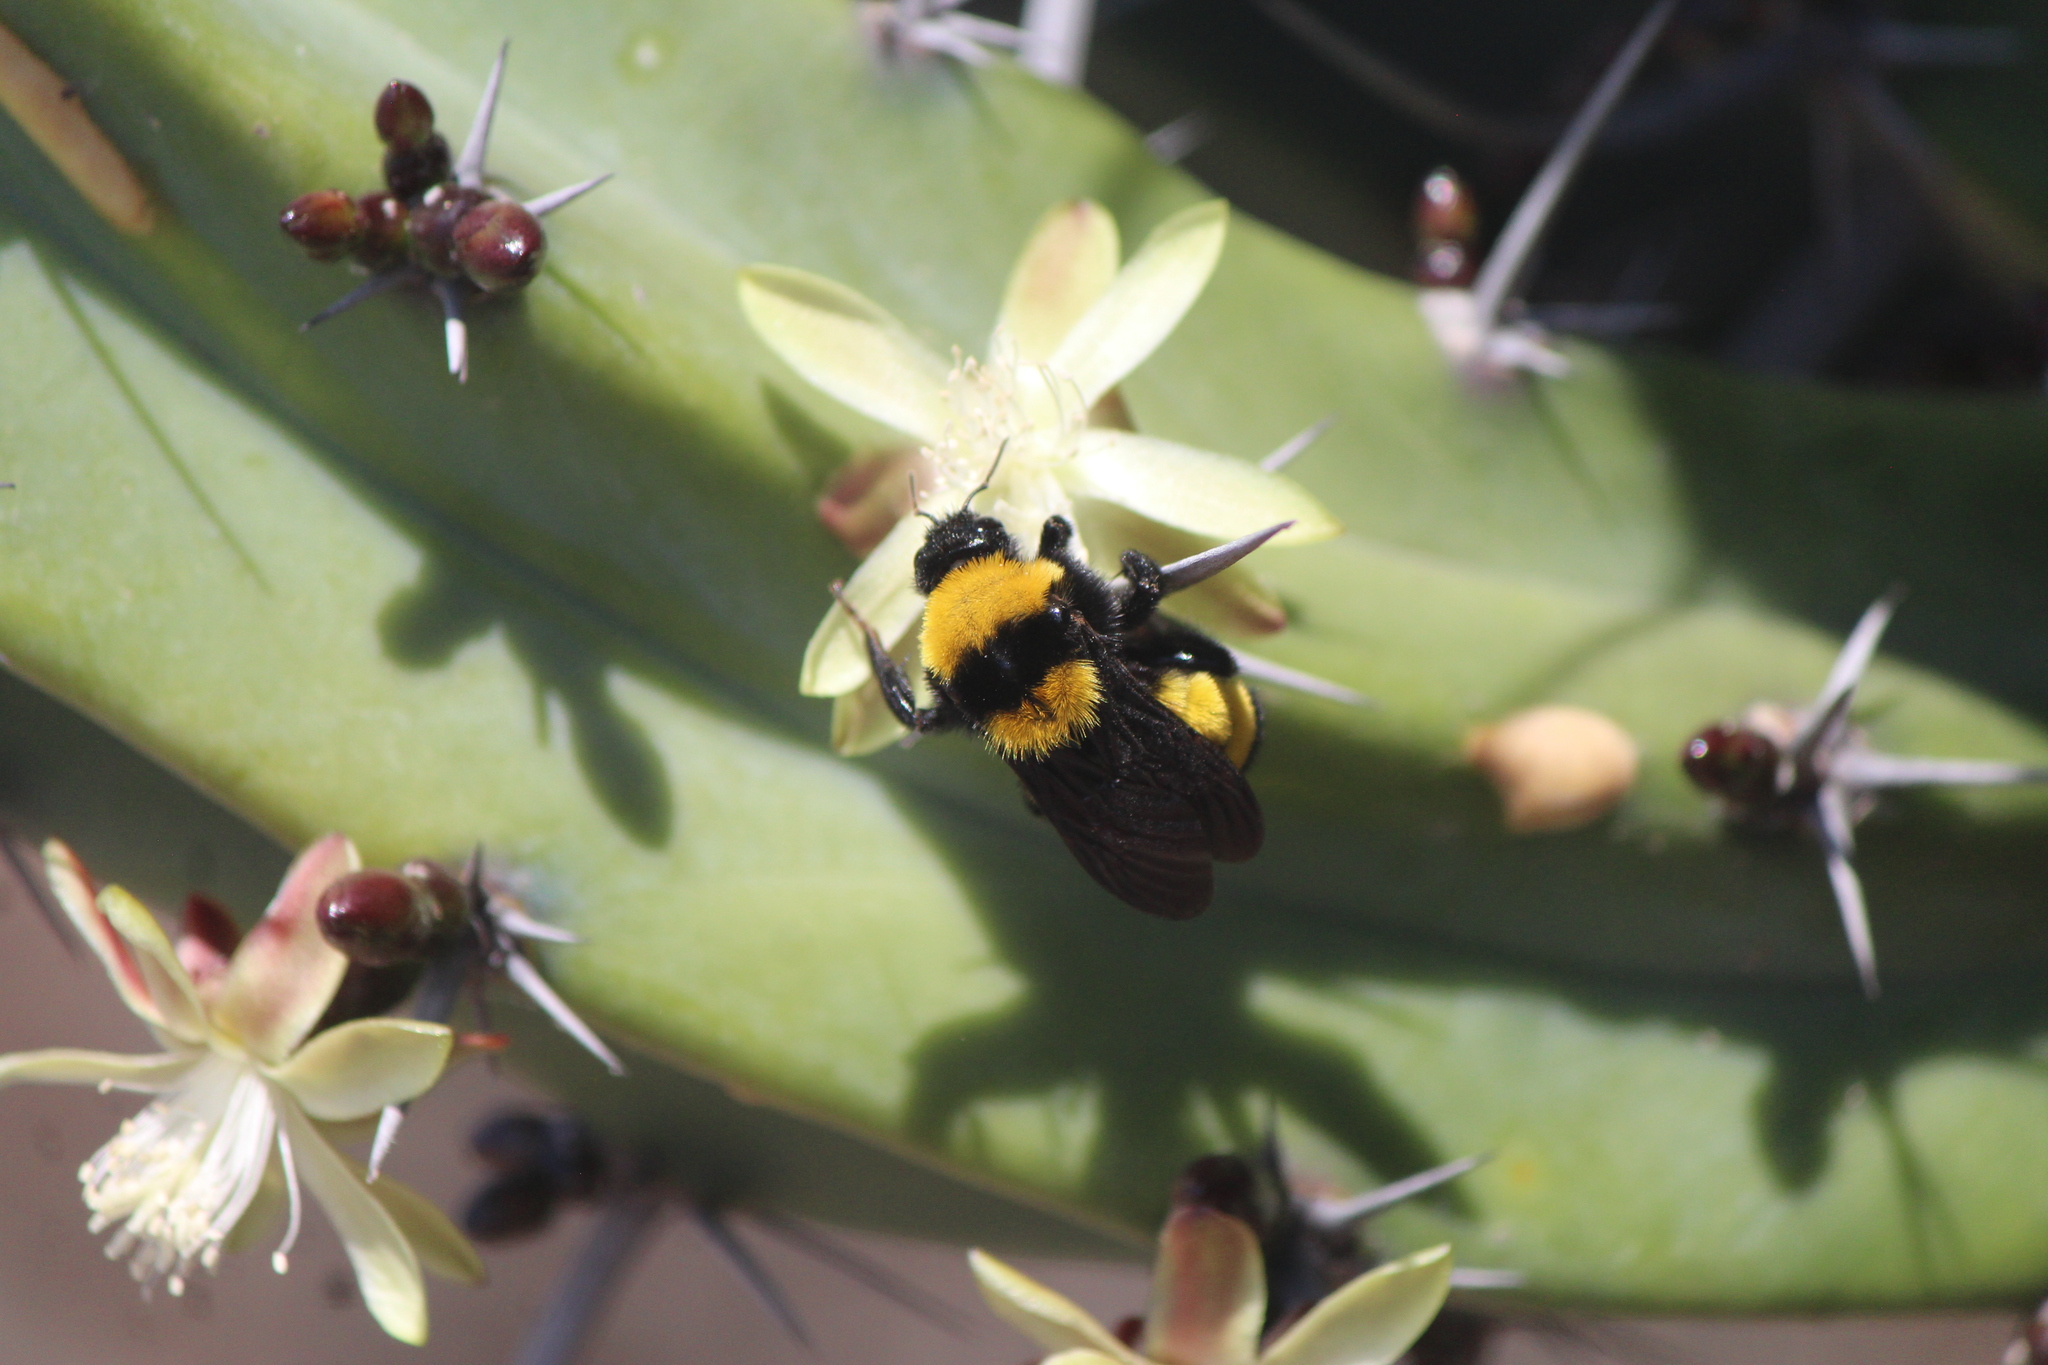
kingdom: Animalia
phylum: Arthropoda
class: Insecta
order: Hymenoptera
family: Apidae
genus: Bombus
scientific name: Bombus sonorus
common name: Sonoran bumble bee
